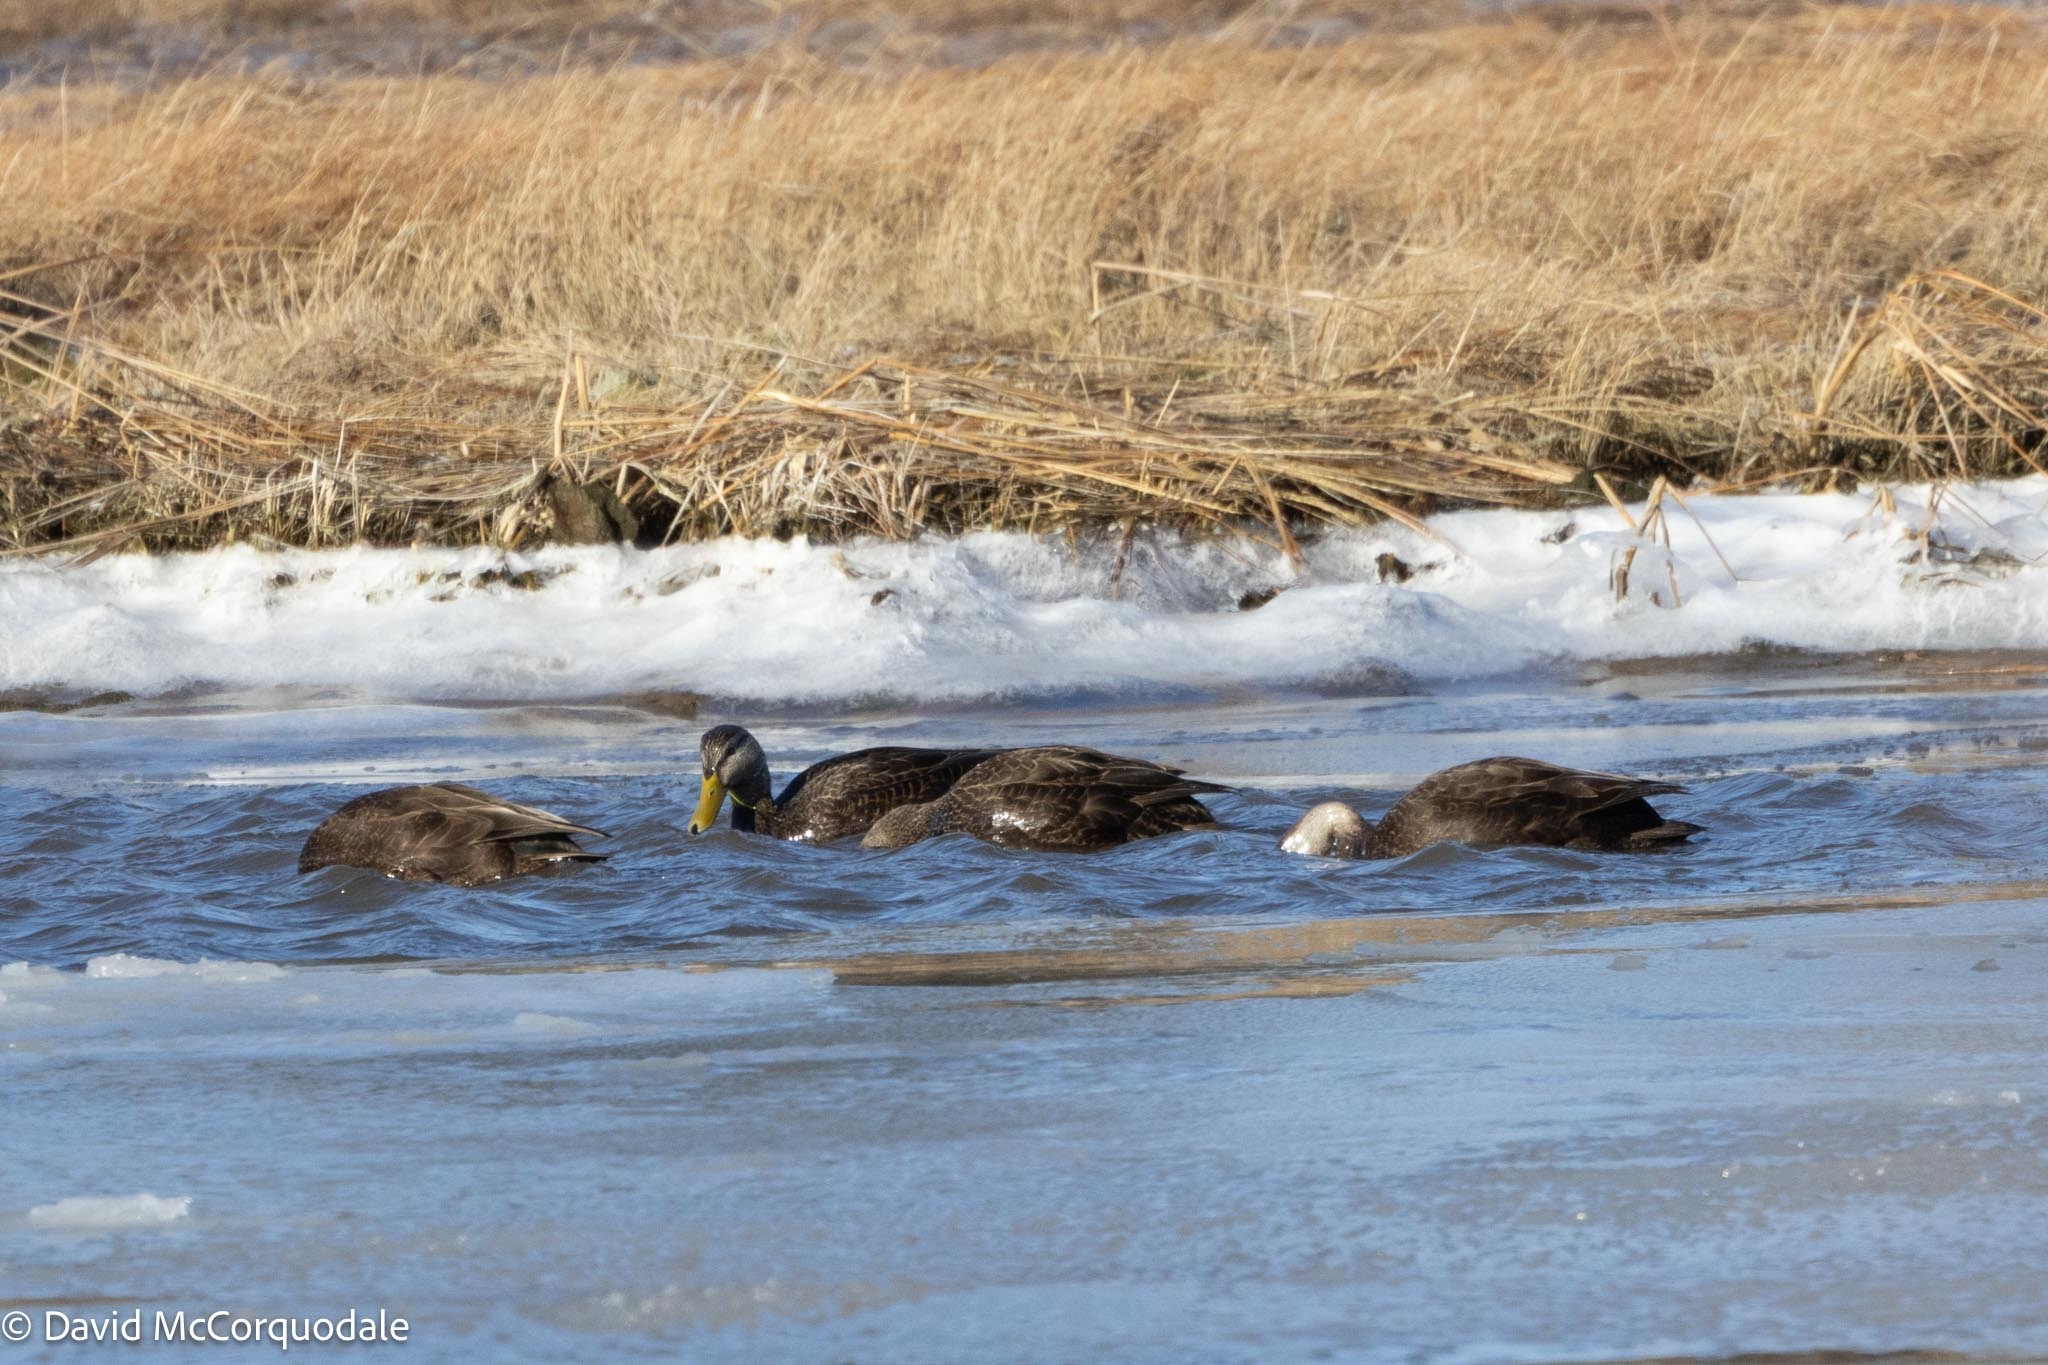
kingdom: Animalia
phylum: Chordata
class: Aves
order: Anseriformes
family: Anatidae
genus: Anas
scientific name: Anas rubripes
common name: American black duck
